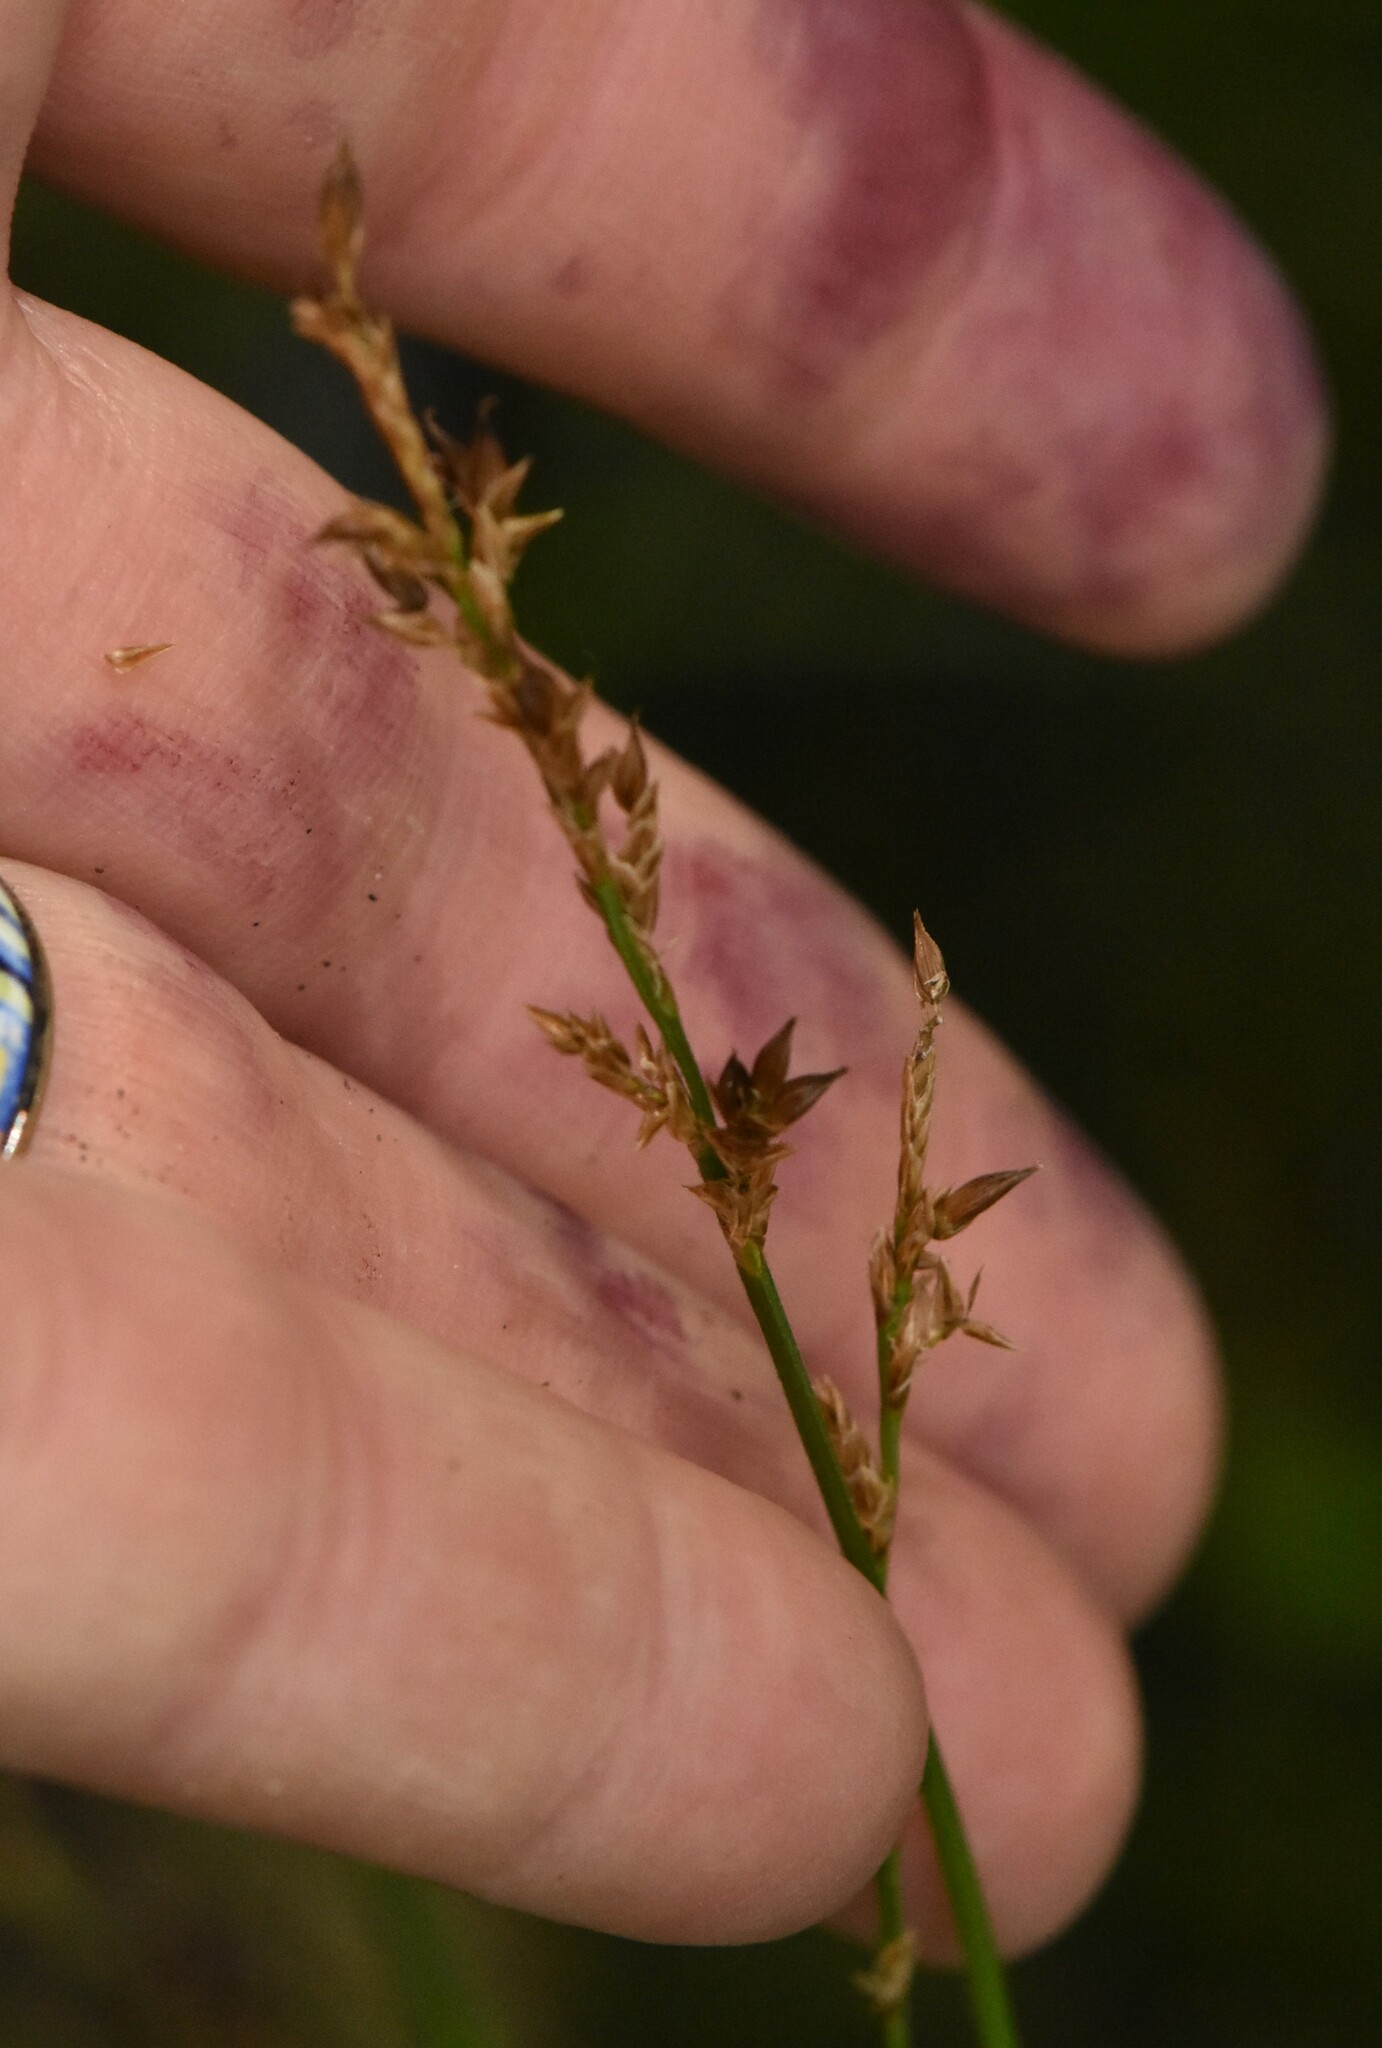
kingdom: Plantae
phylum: Tracheophyta
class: Liliopsida
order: Poales
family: Cyperaceae
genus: Carex
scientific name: Carex elongata
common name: Elongated sedge
